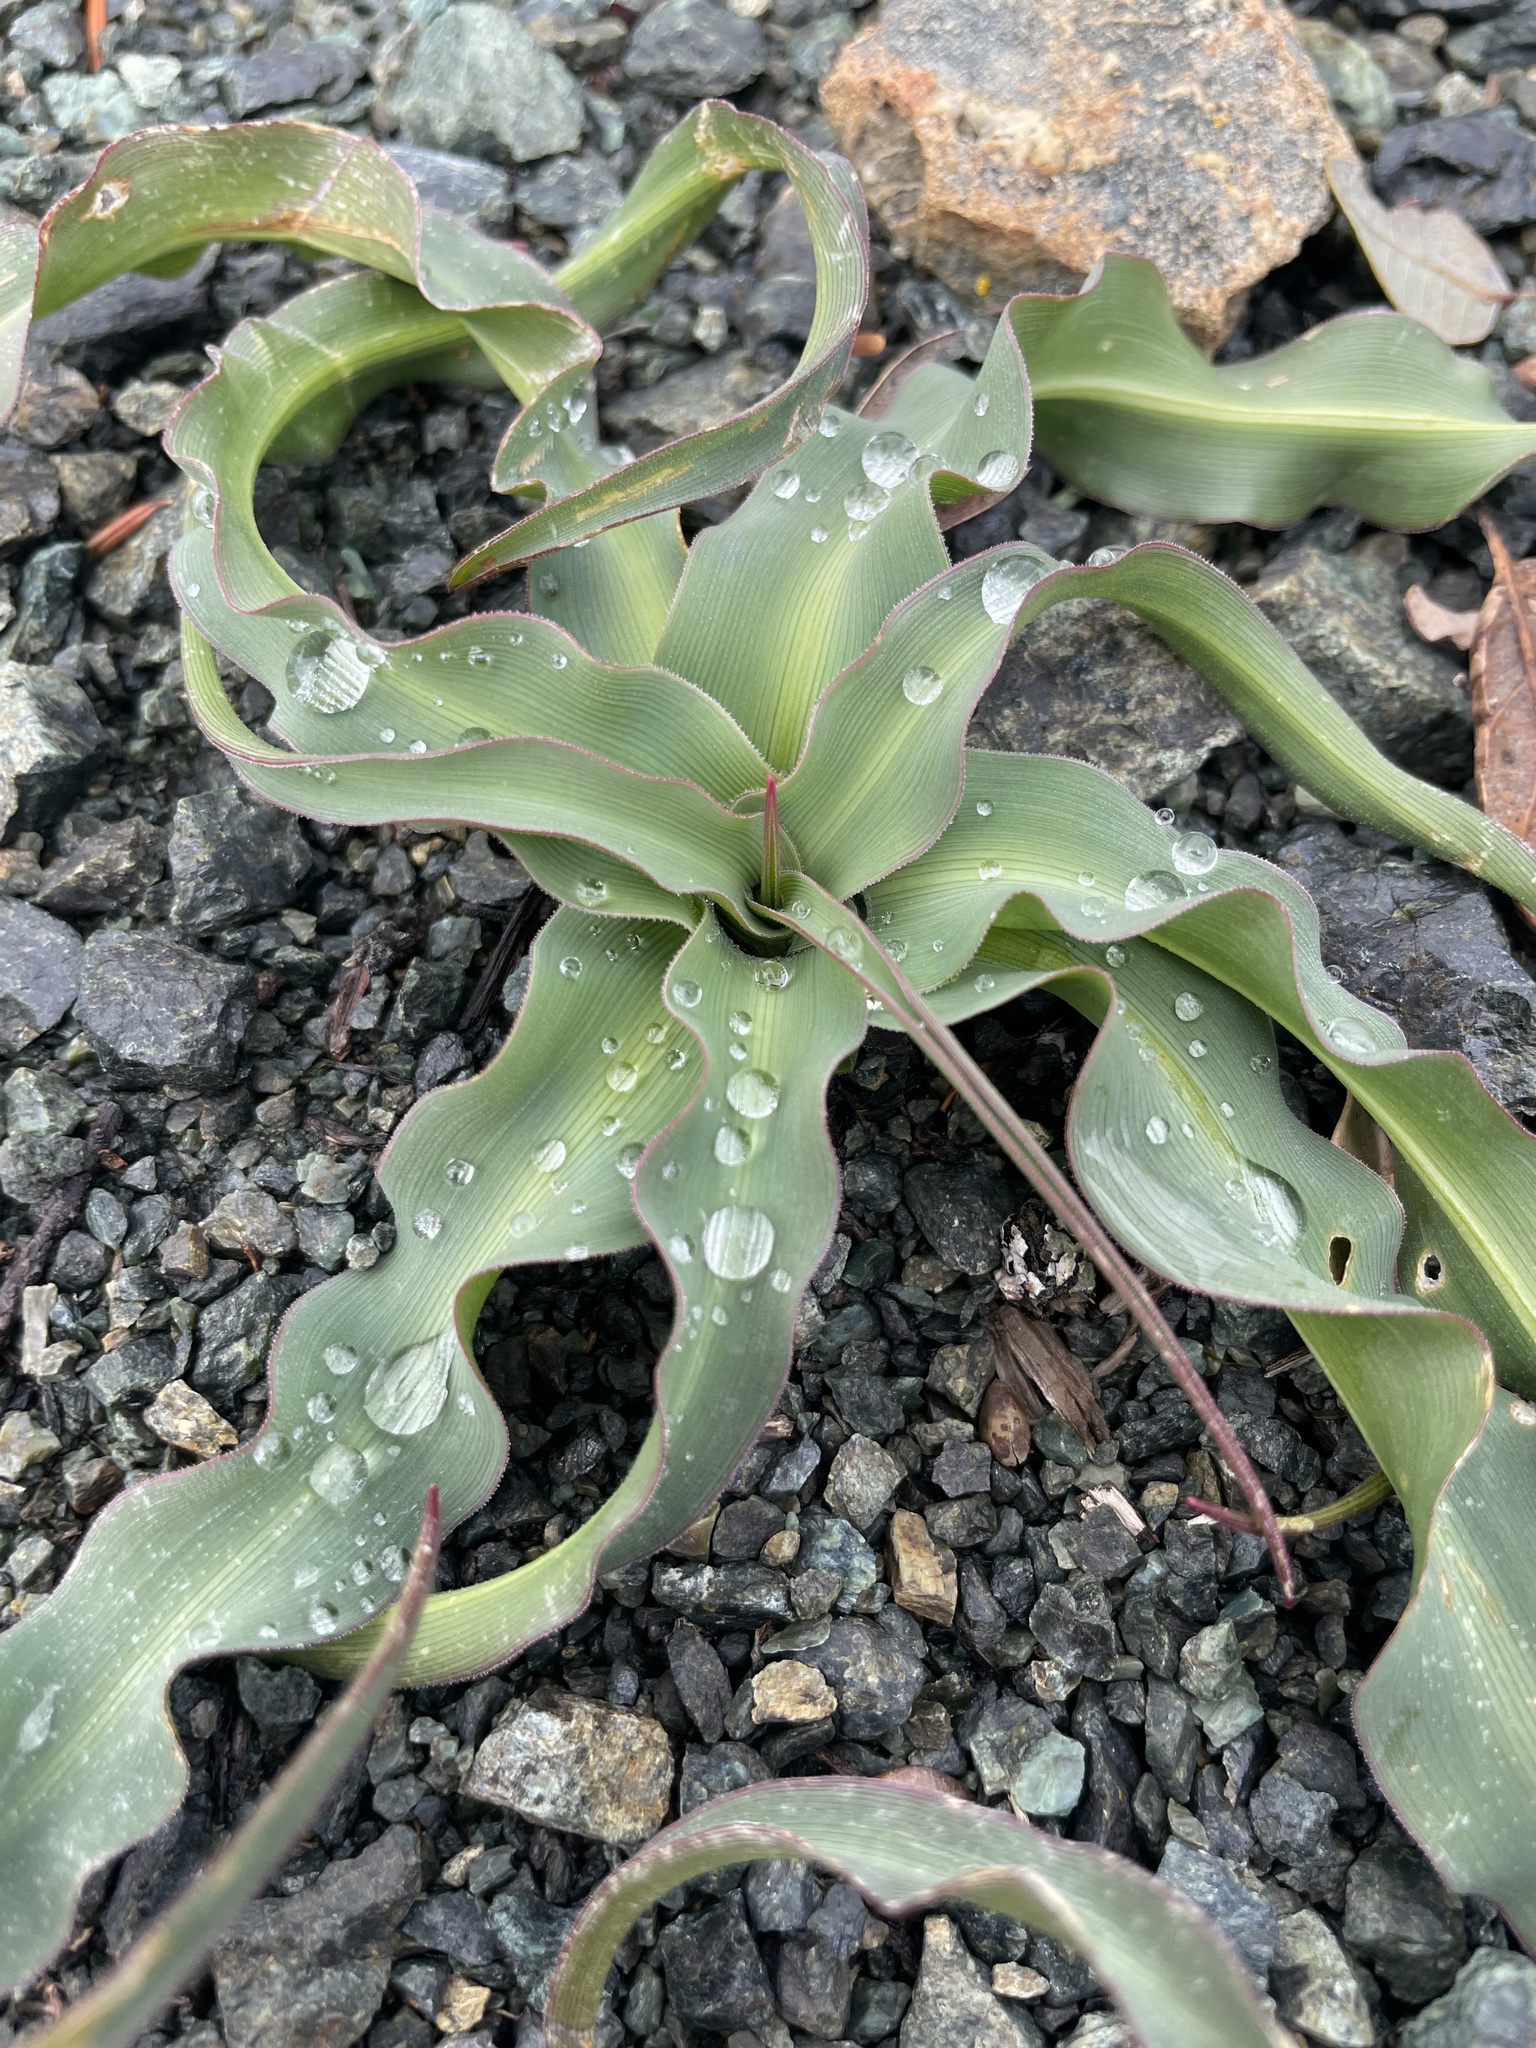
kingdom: Plantae
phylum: Tracheophyta
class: Liliopsida
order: Asparagales
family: Asparagaceae
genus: Chlorogalum
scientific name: Chlorogalum pomeridianum
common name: Amole
